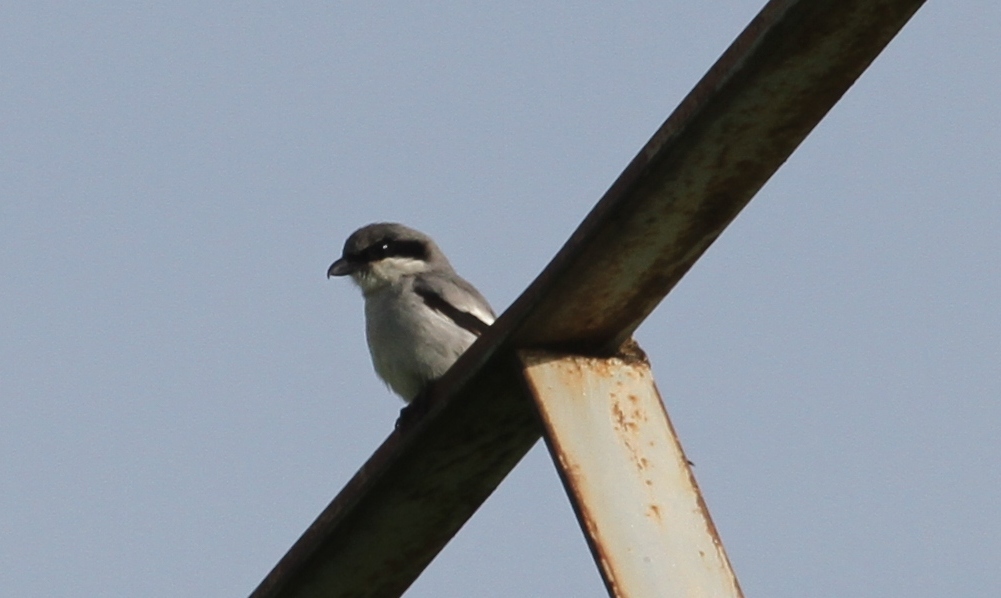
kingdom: Animalia
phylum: Chordata
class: Aves
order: Passeriformes
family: Laniidae
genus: Lanius
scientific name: Lanius excubitor
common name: Great grey shrike
